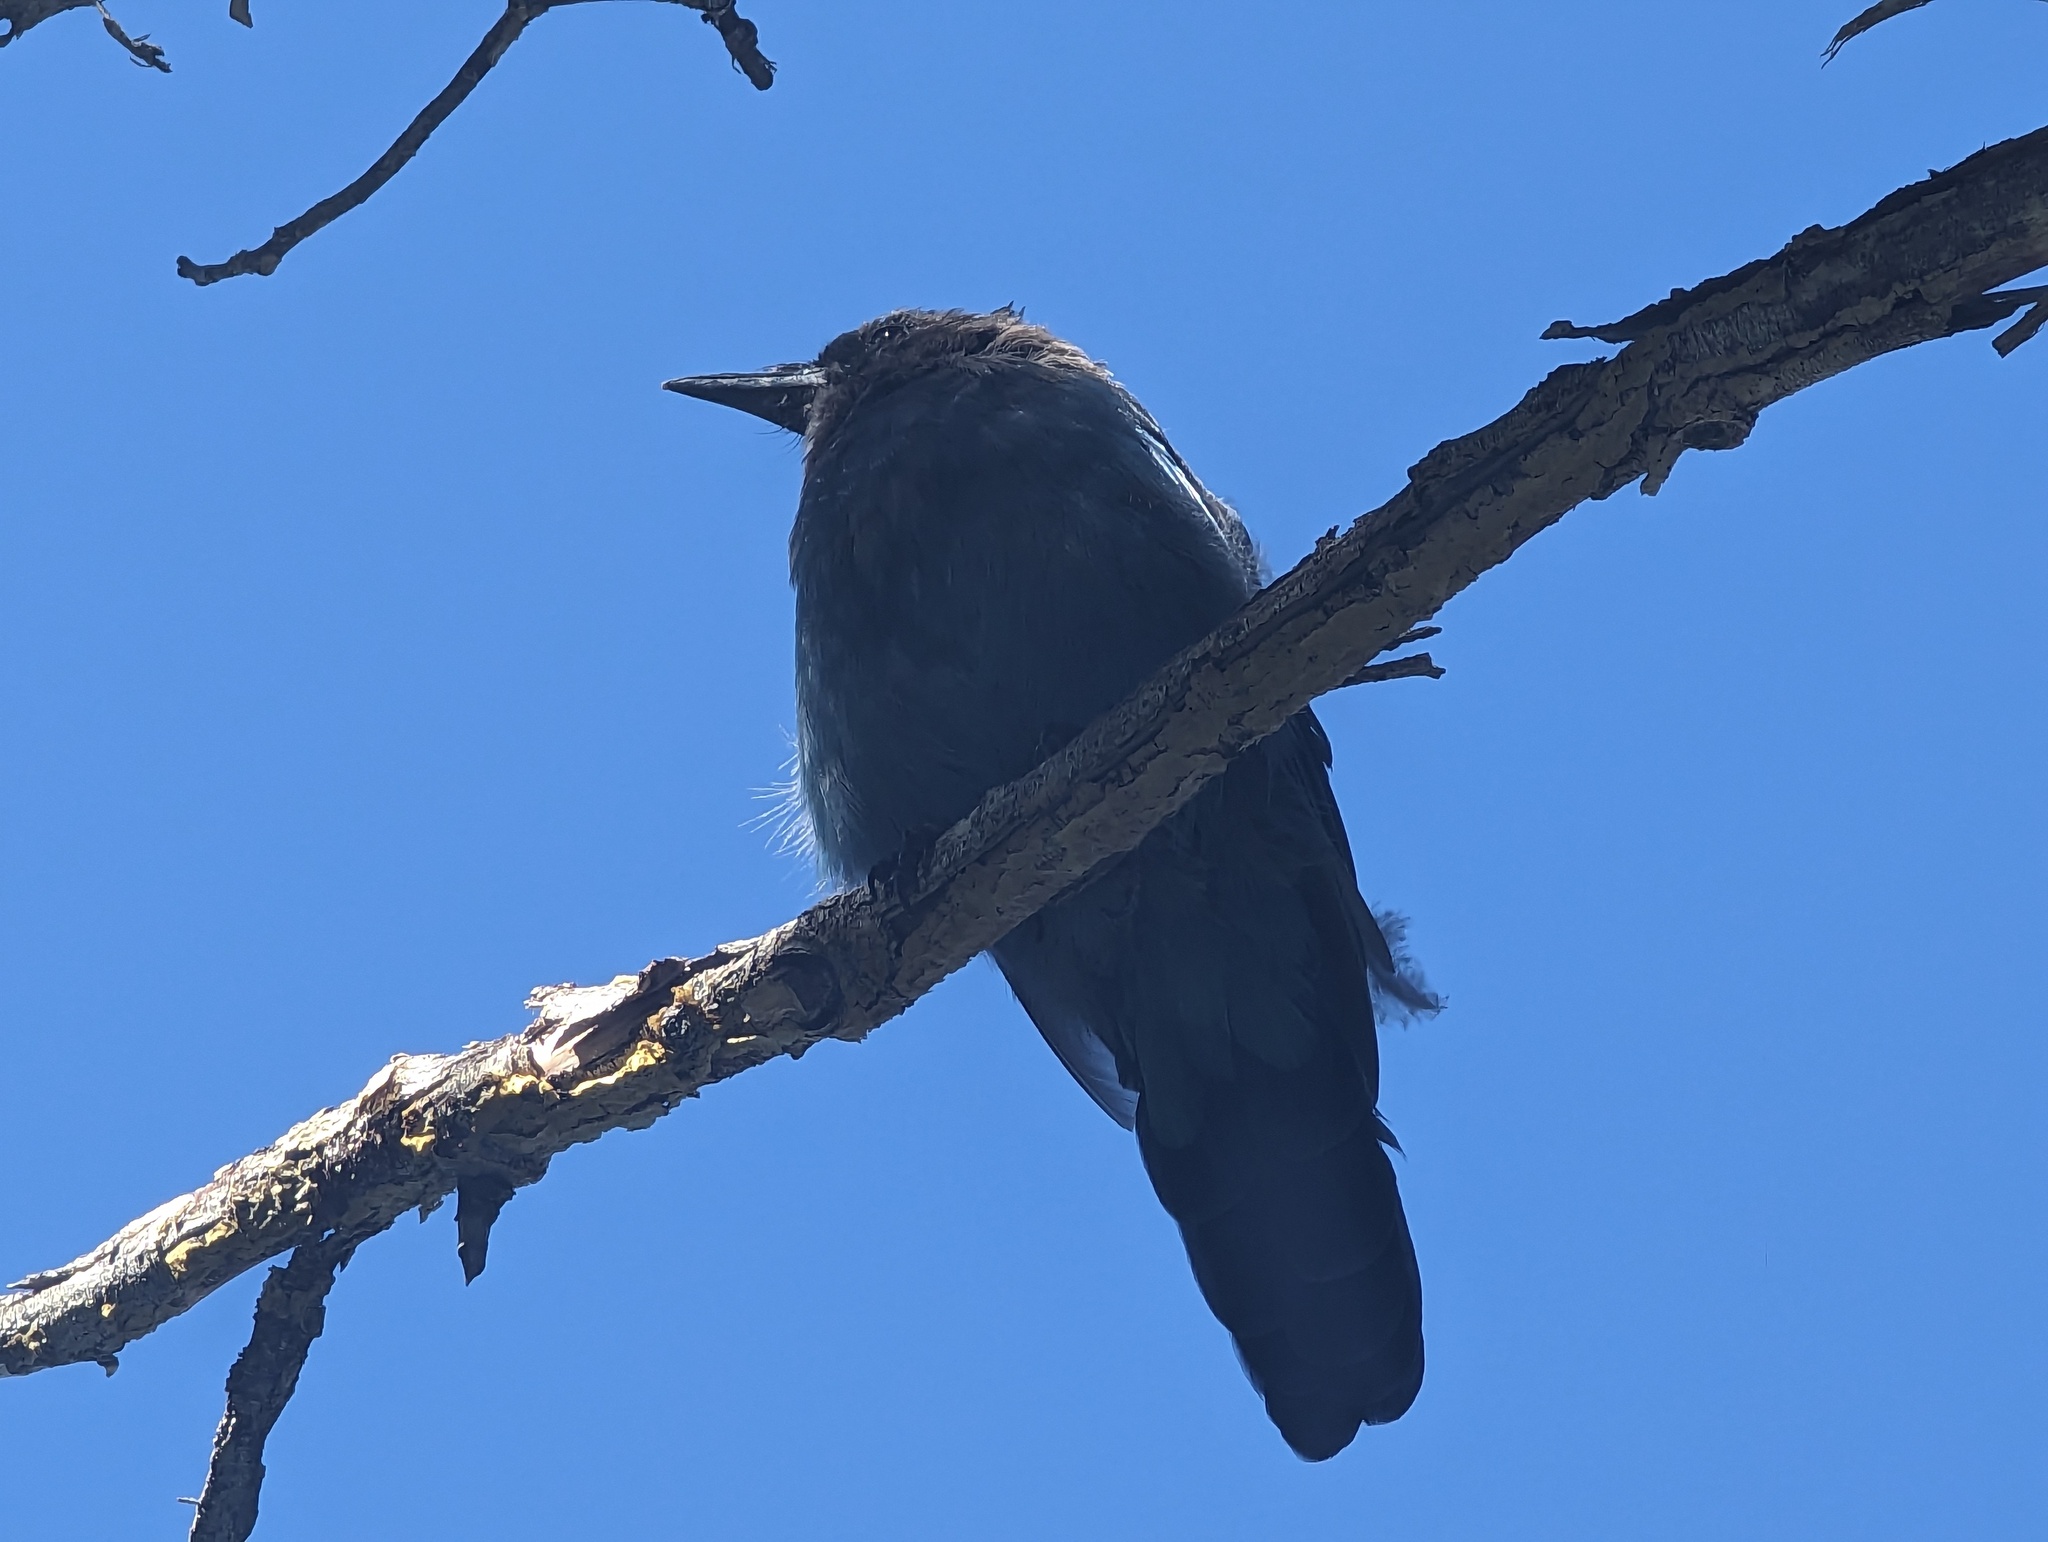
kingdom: Animalia
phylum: Chordata
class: Aves
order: Passeriformes
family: Corvidae
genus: Cyanocitta
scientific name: Cyanocitta stelleri
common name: Steller's jay
